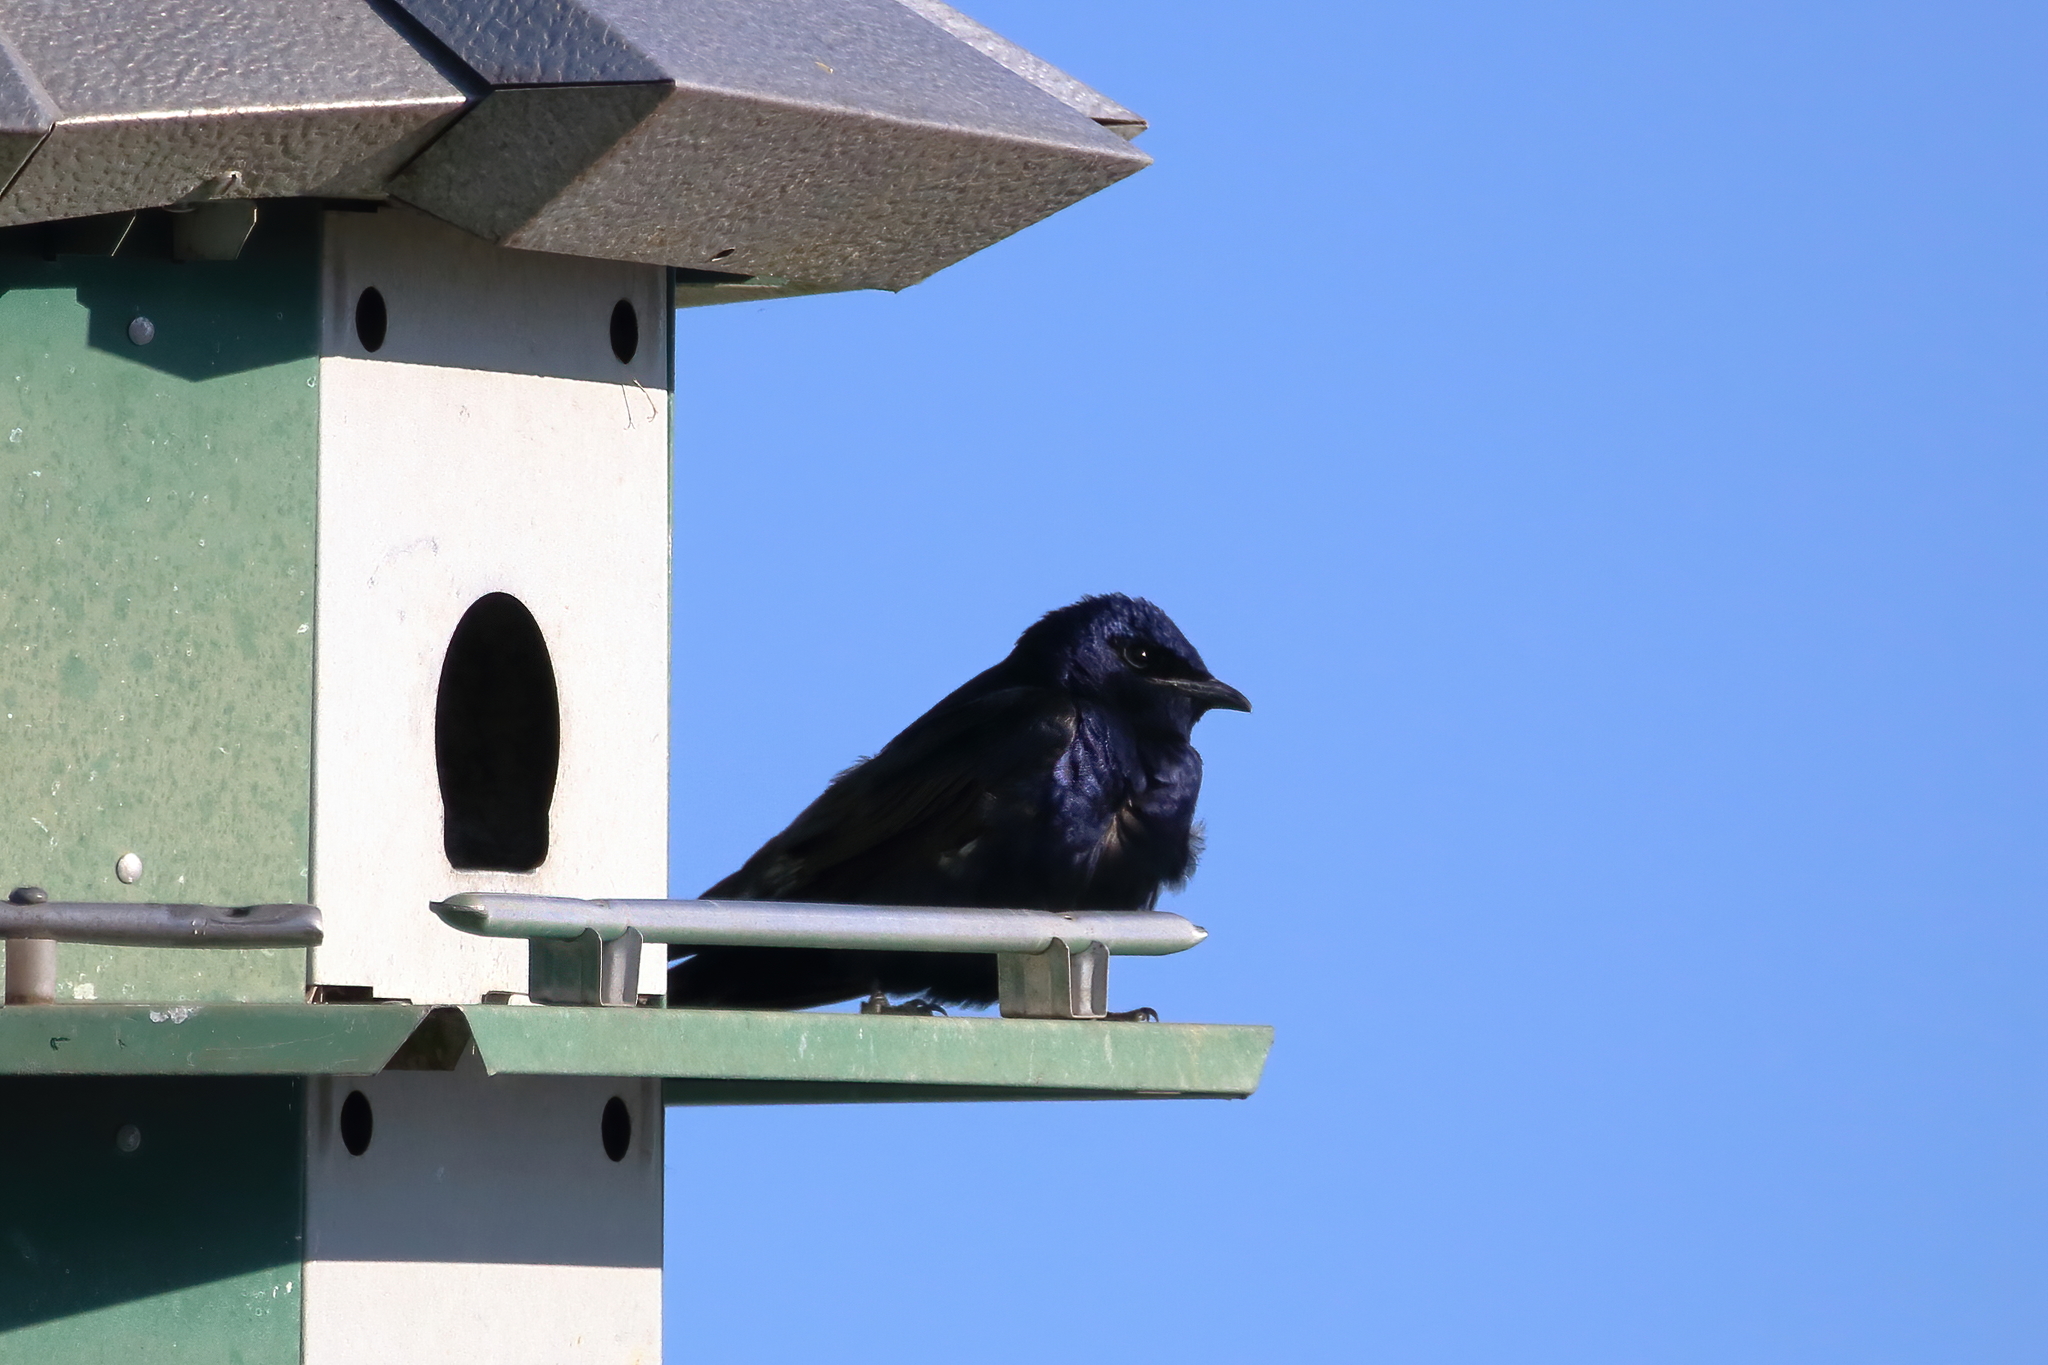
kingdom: Animalia
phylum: Chordata
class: Aves
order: Passeriformes
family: Hirundinidae
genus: Progne
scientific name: Progne subis
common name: Purple martin
